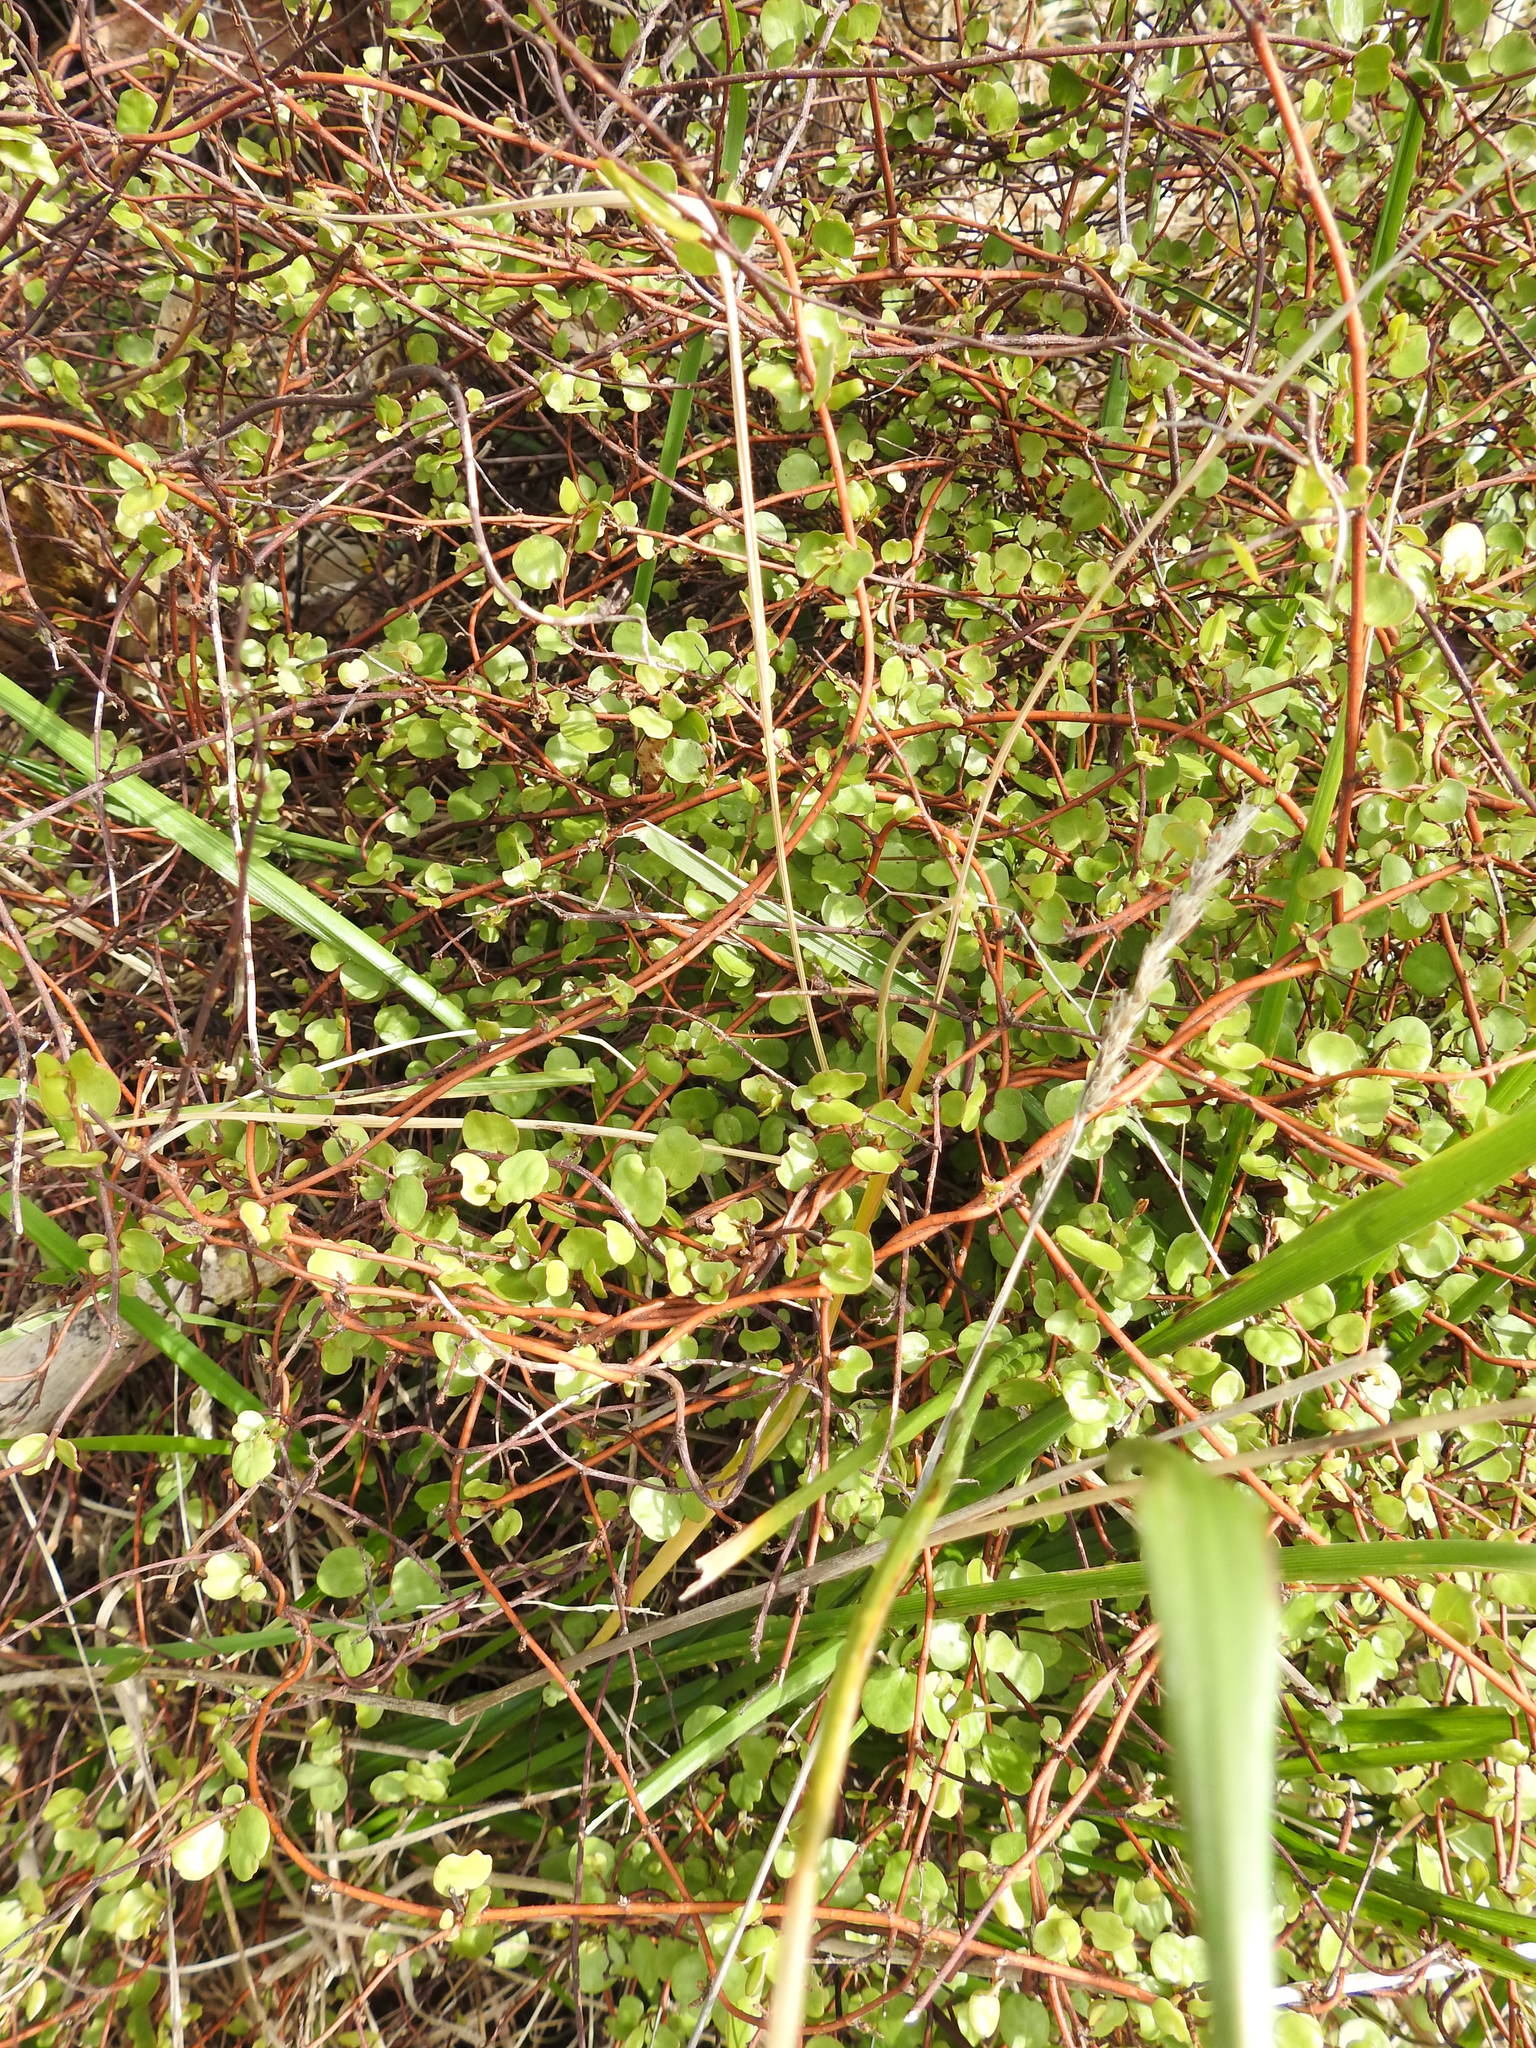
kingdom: Plantae
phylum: Tracheophyta
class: Magnoliopsida
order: Caryophyllales
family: Polygonaceae
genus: Muehlenbeckia
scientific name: Muehlenbeckia complexa
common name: Wireplant
